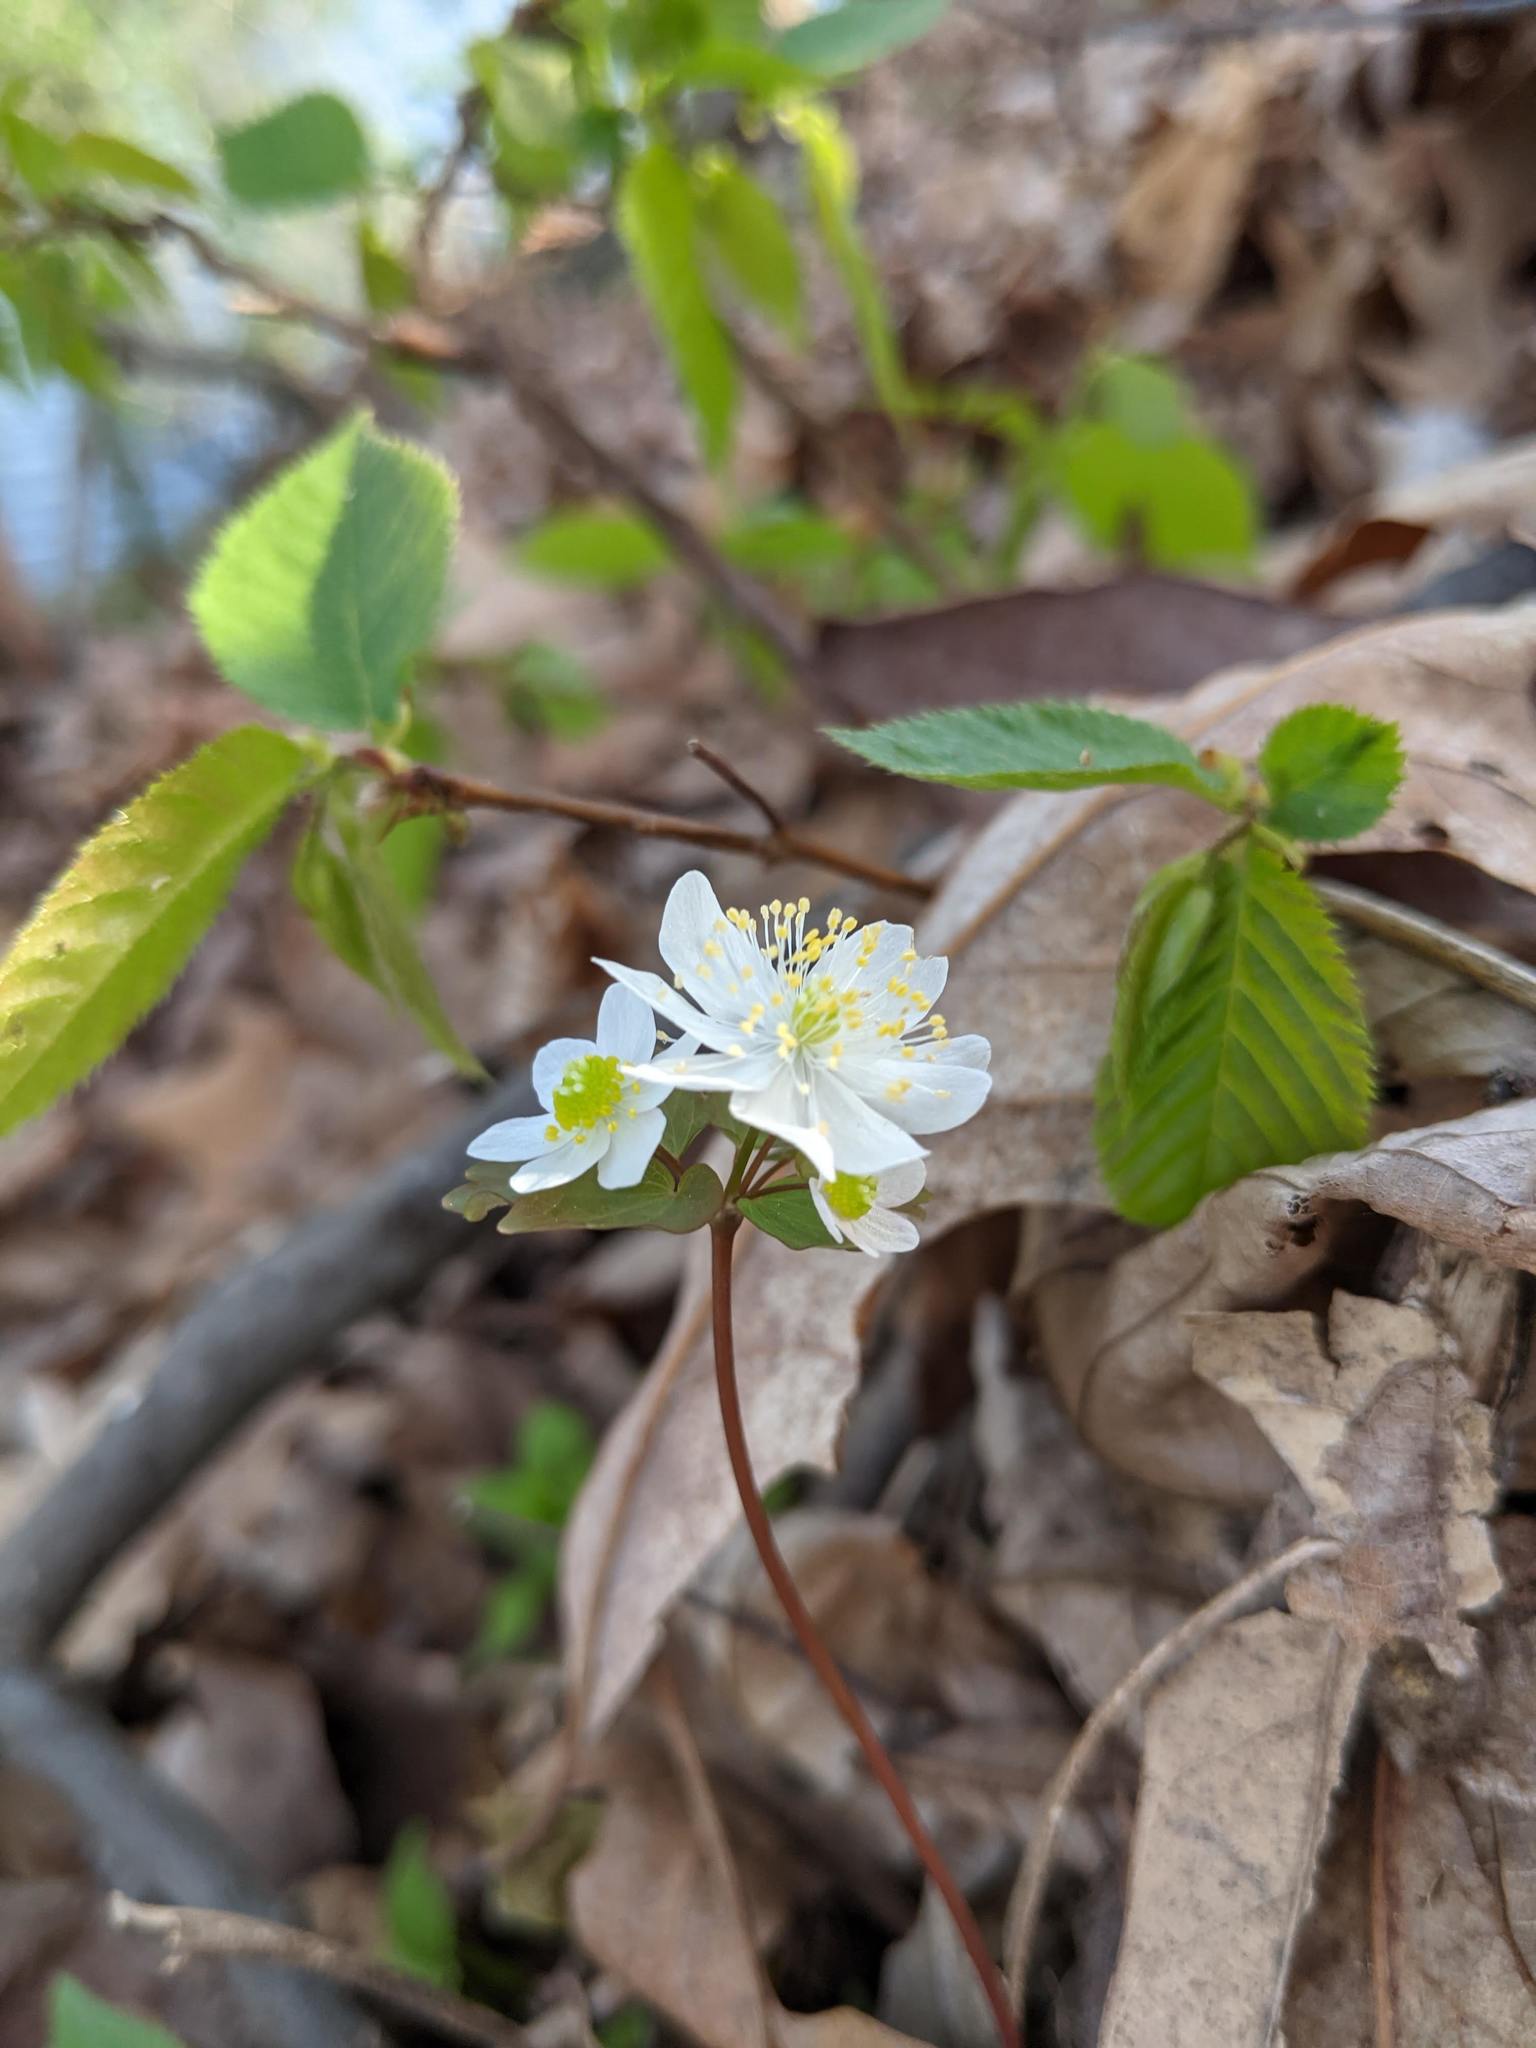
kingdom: Plantae
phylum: Tracheophyta
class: Magnoliopsida
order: Ranunculales
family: Ranunculaceae
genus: Thalictrum
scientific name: Thalictrum thalictroides
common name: Rue-anemone
